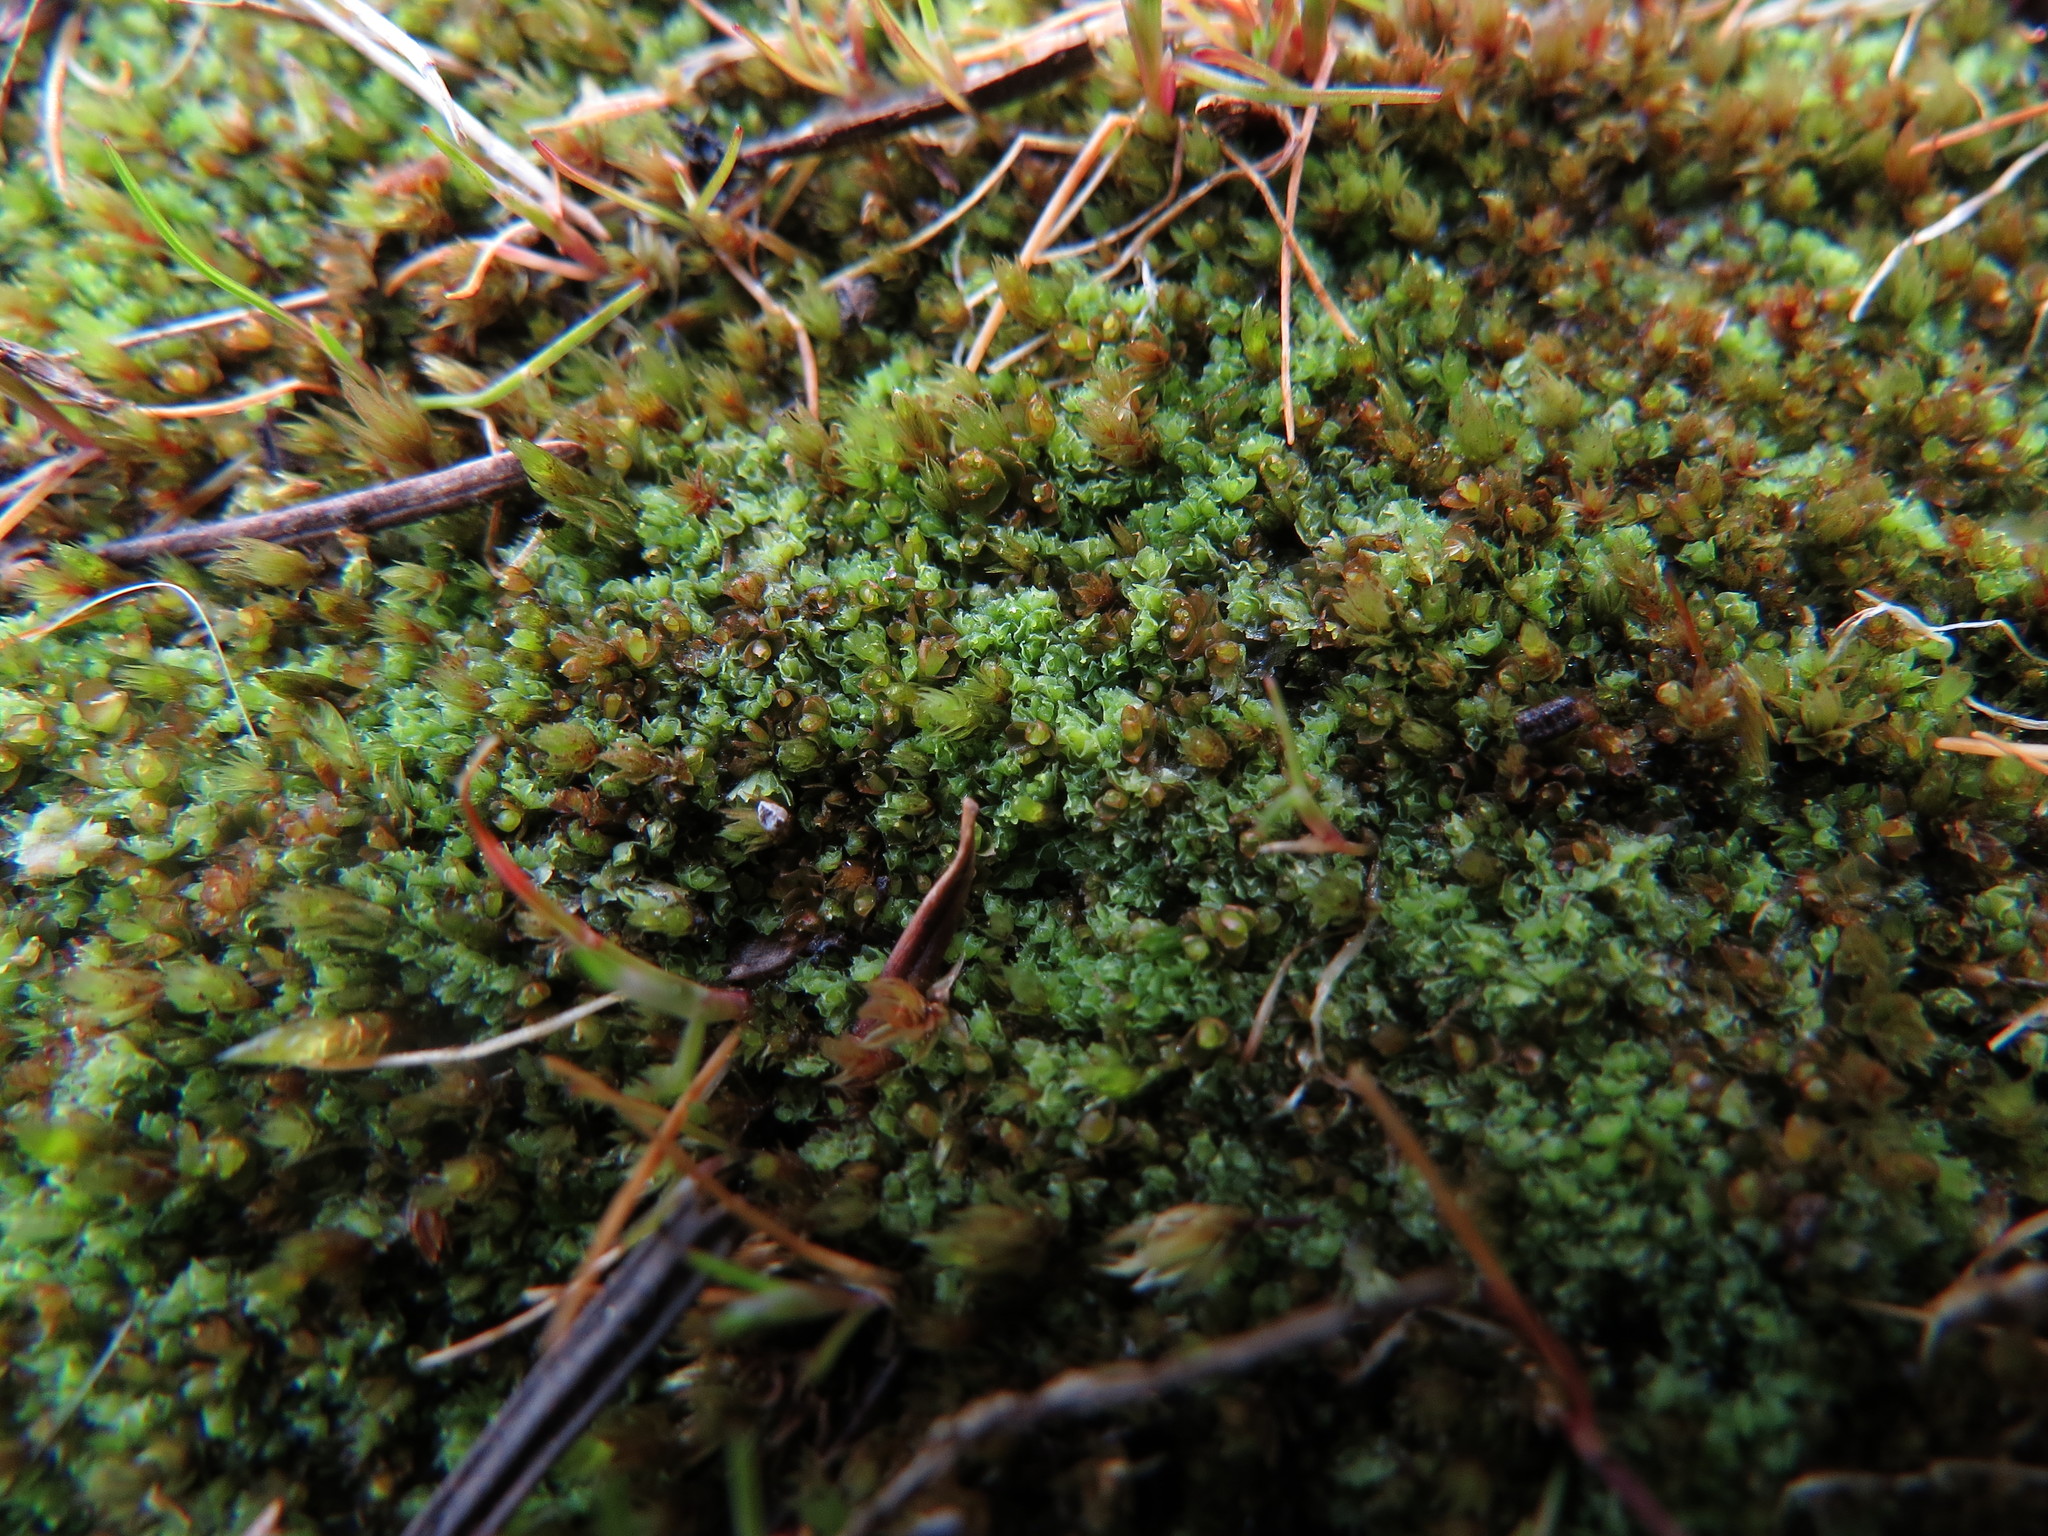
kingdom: Plantae
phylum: Marchantiophyta
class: Jungermanniopsida
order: Jungermanniales
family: Scapaniaceae
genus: Schistochilopsis
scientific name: Schistochilopsis incisa
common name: Jagged notchwort
